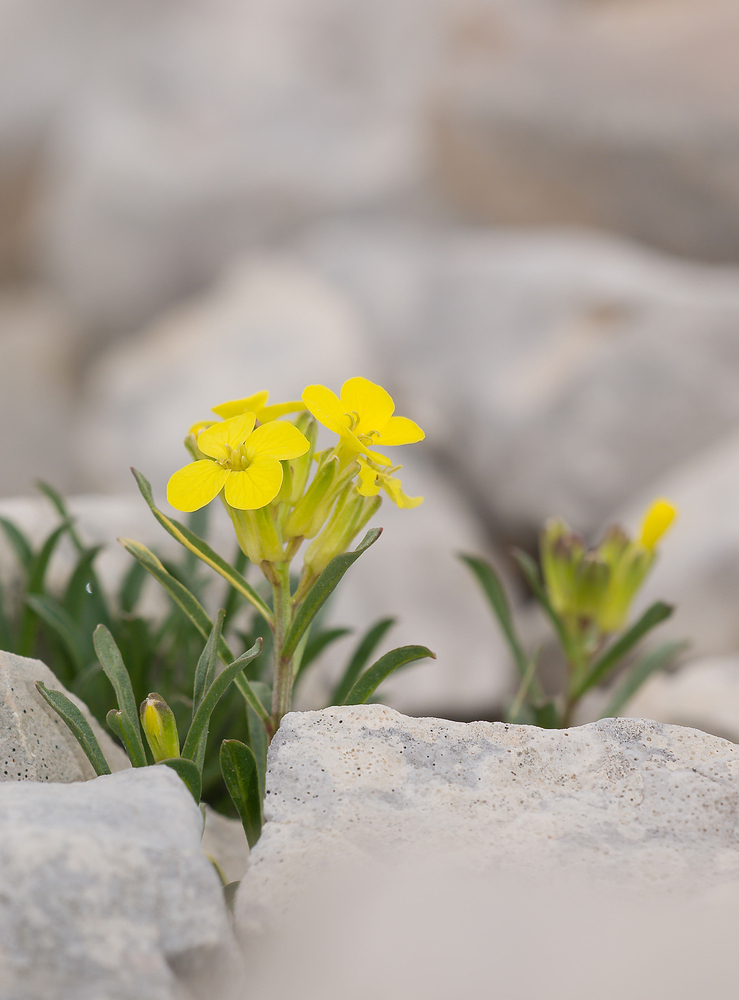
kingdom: Plantae
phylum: Tracheophyta
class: Magnoliopsida
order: Brassicales
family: Brassicaceae
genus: Erysimum
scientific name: Erysimum rhaeticum
